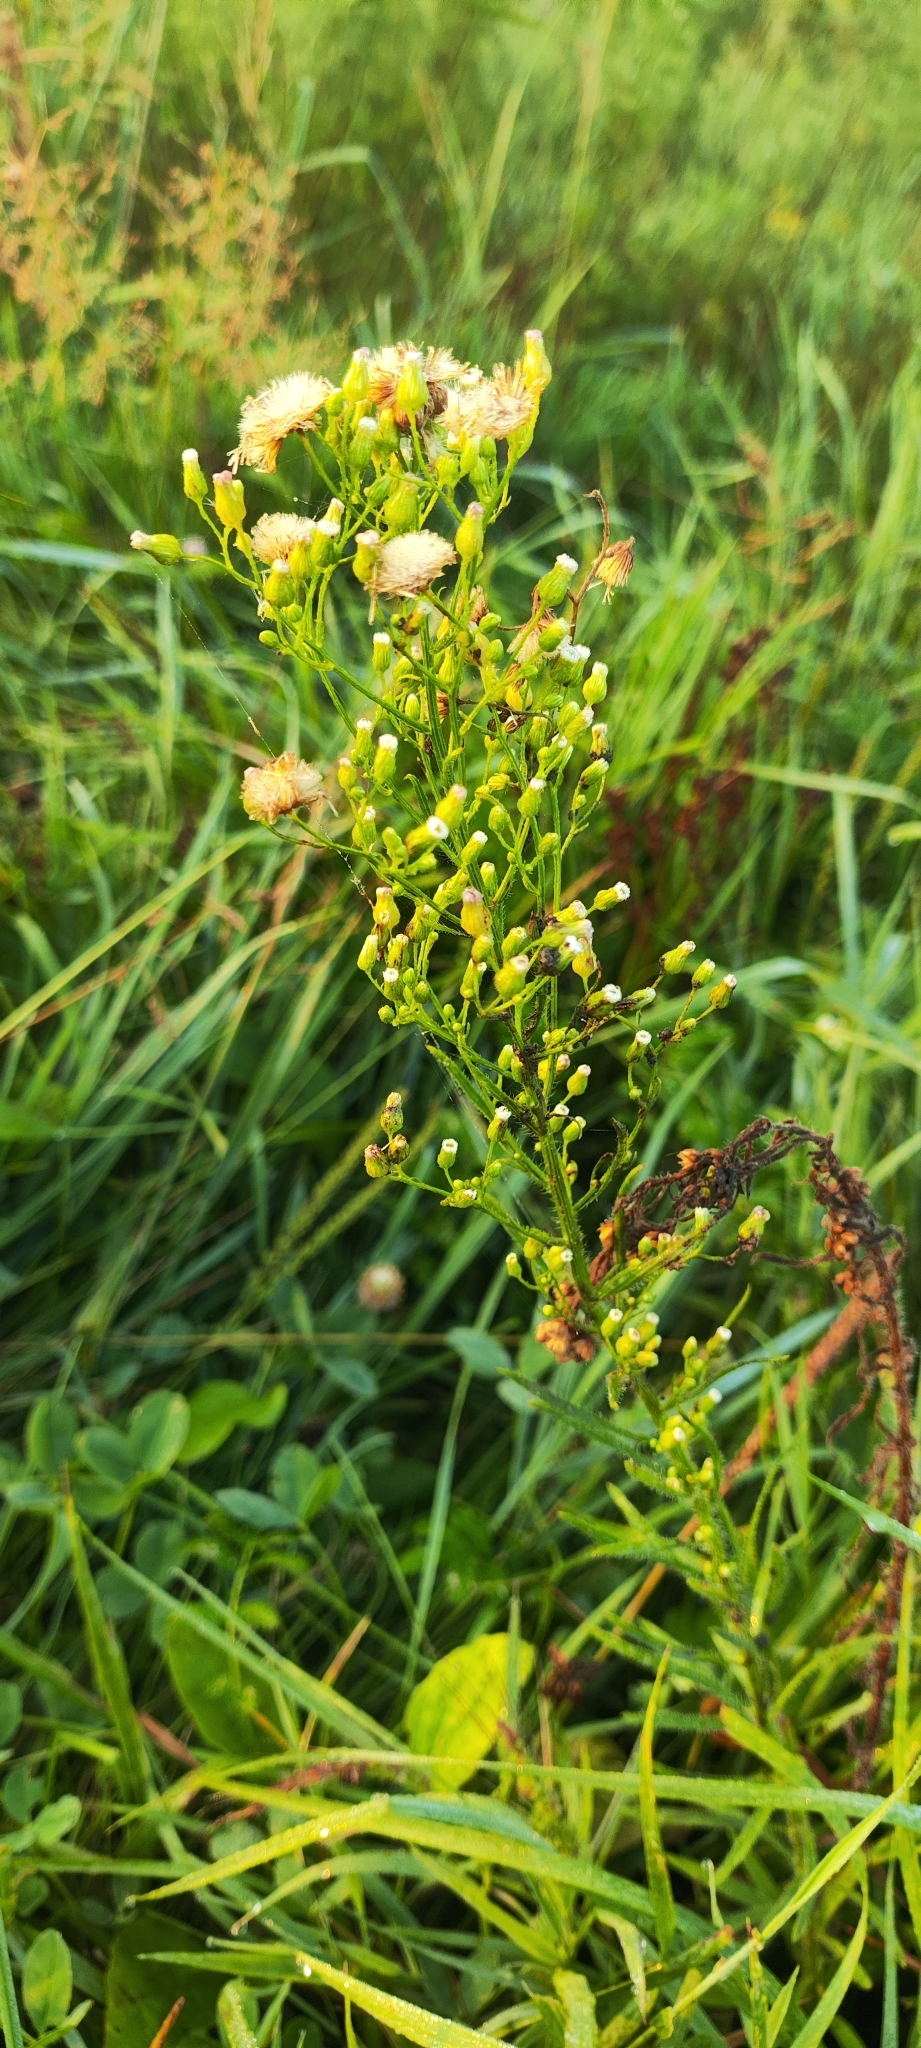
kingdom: Plantae
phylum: Tracheophyta
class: Magnoliopsida
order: Asterales
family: Asteraceae
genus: Erigeron
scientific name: Erigeron canadensis
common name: Canadian fleabane
